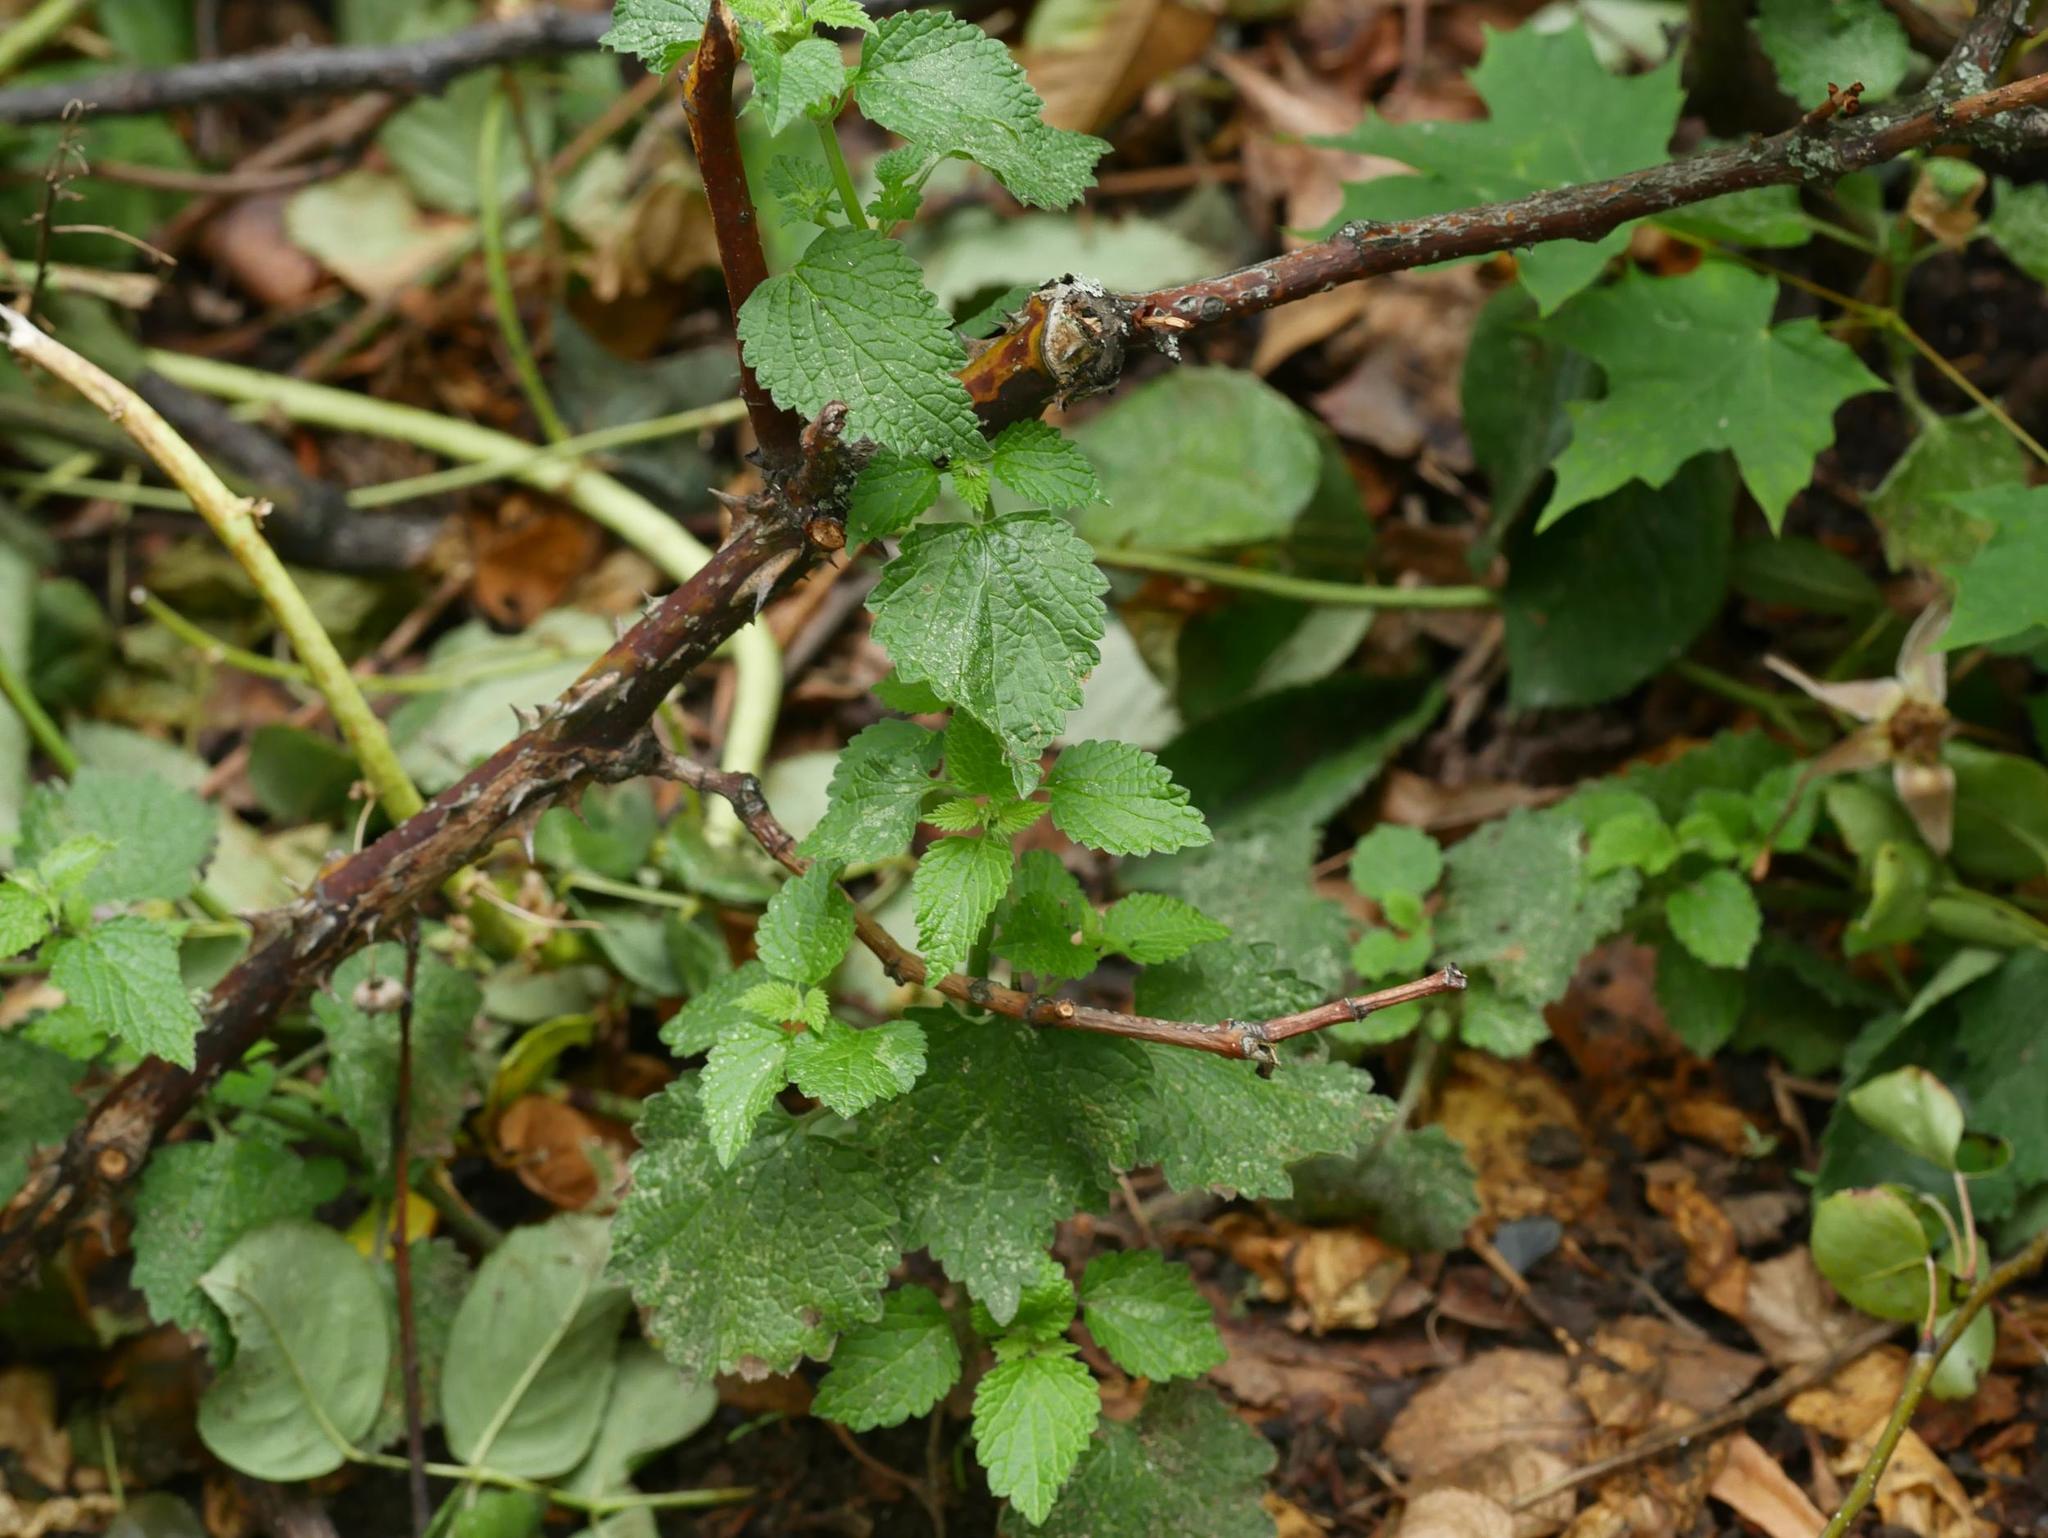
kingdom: Plantae
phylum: Tracheophyta
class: Magnoliopsida
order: Sapindales
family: Sapindaceae
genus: Acer
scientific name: Acer platanoides
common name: Norway maple
